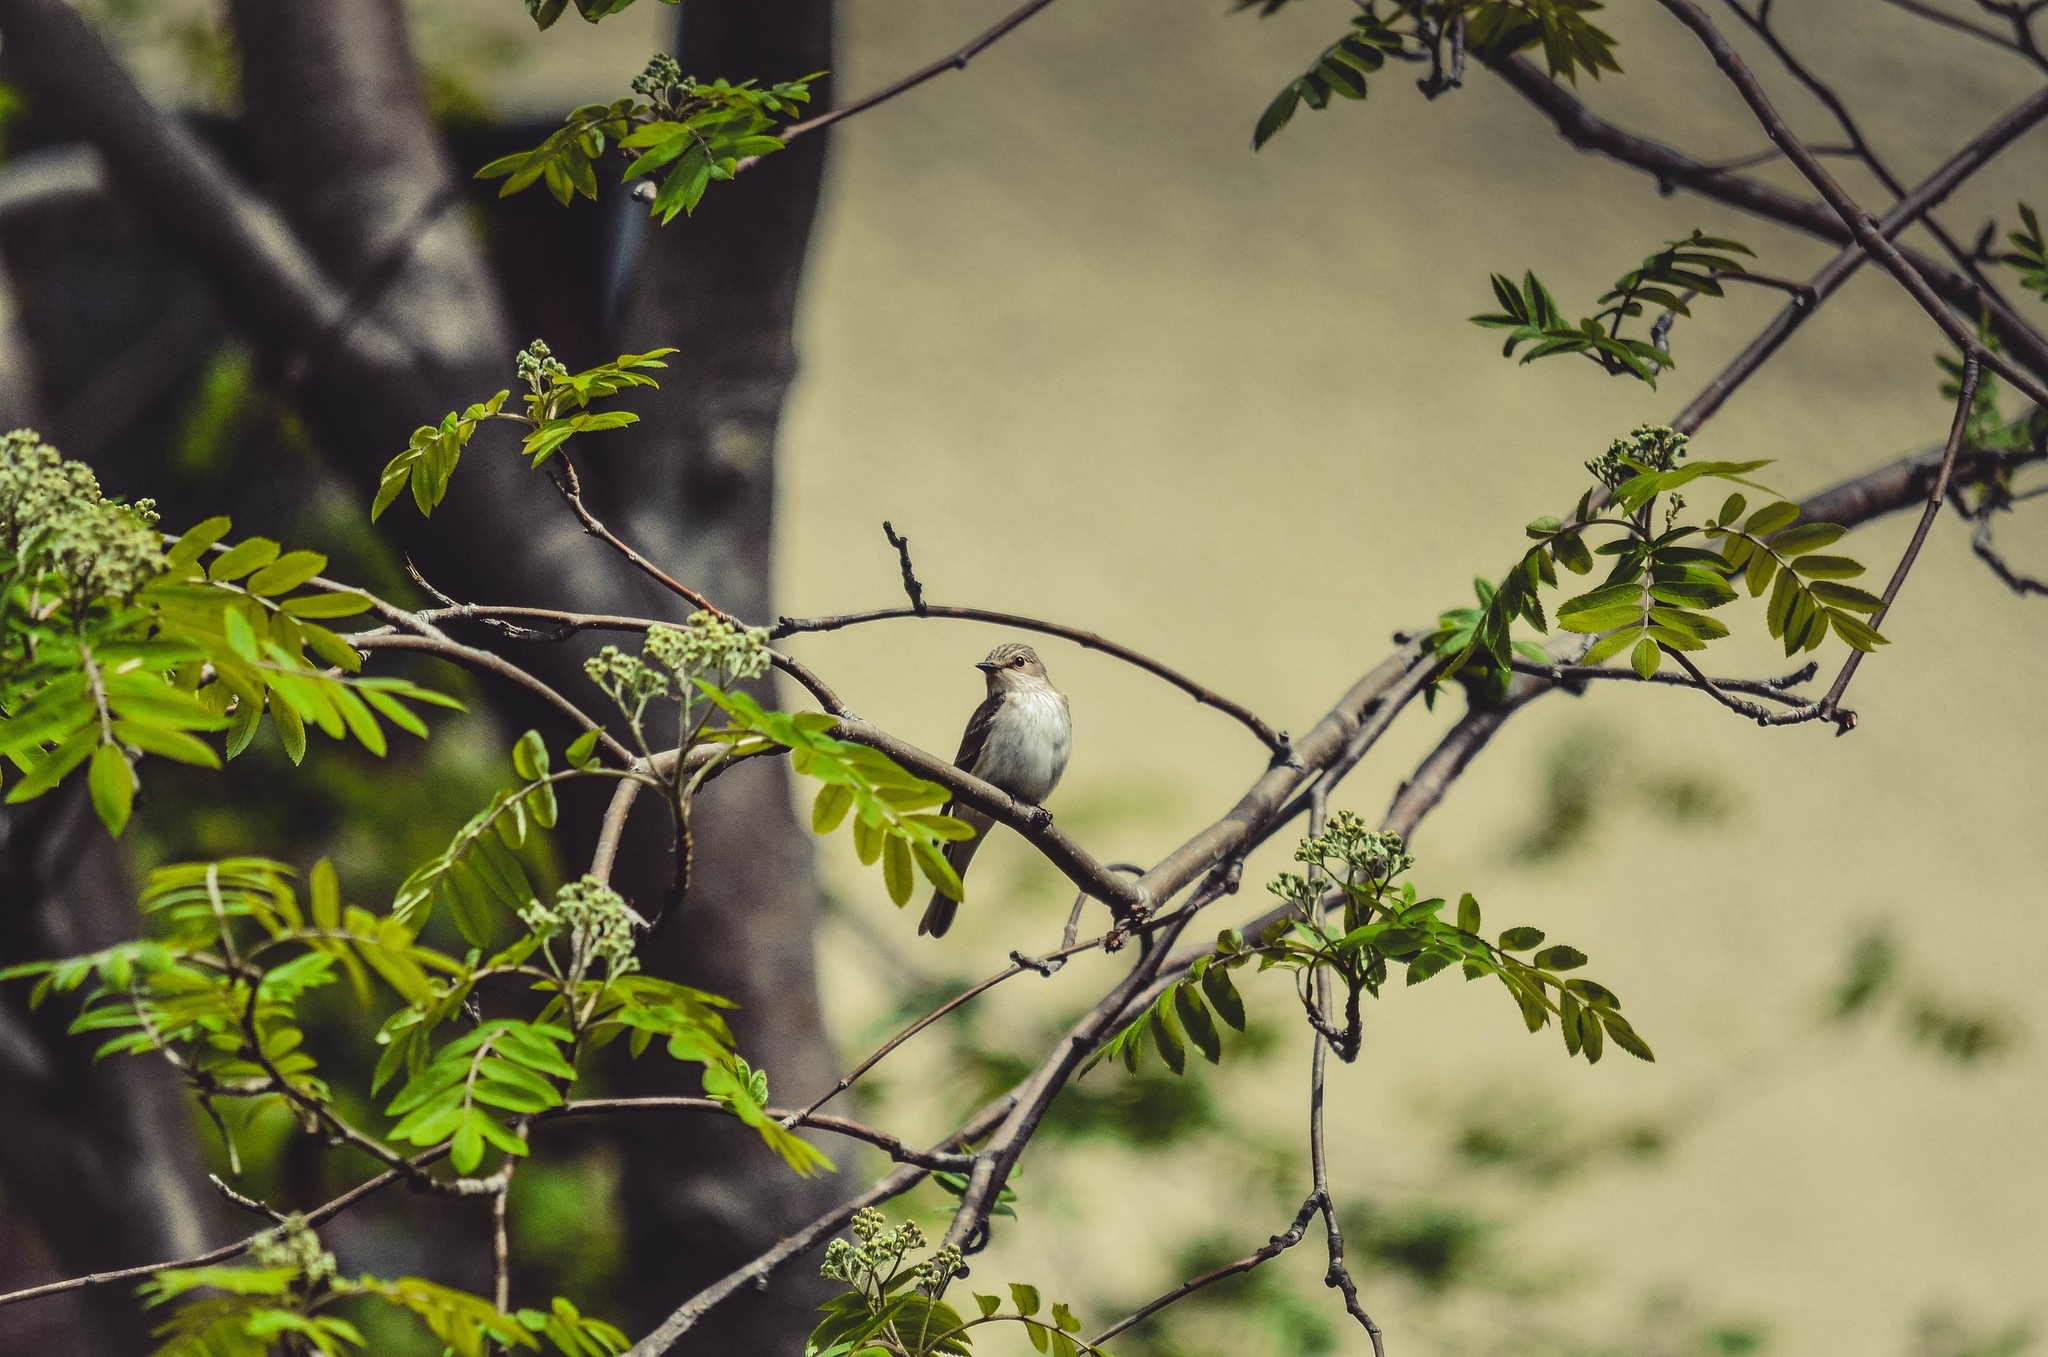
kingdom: Animalia
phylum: Chordata
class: Aves
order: Passeriformes
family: Muscicapidae
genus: Muscicapa
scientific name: Muscicapa striata
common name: Spotted flycatcher
